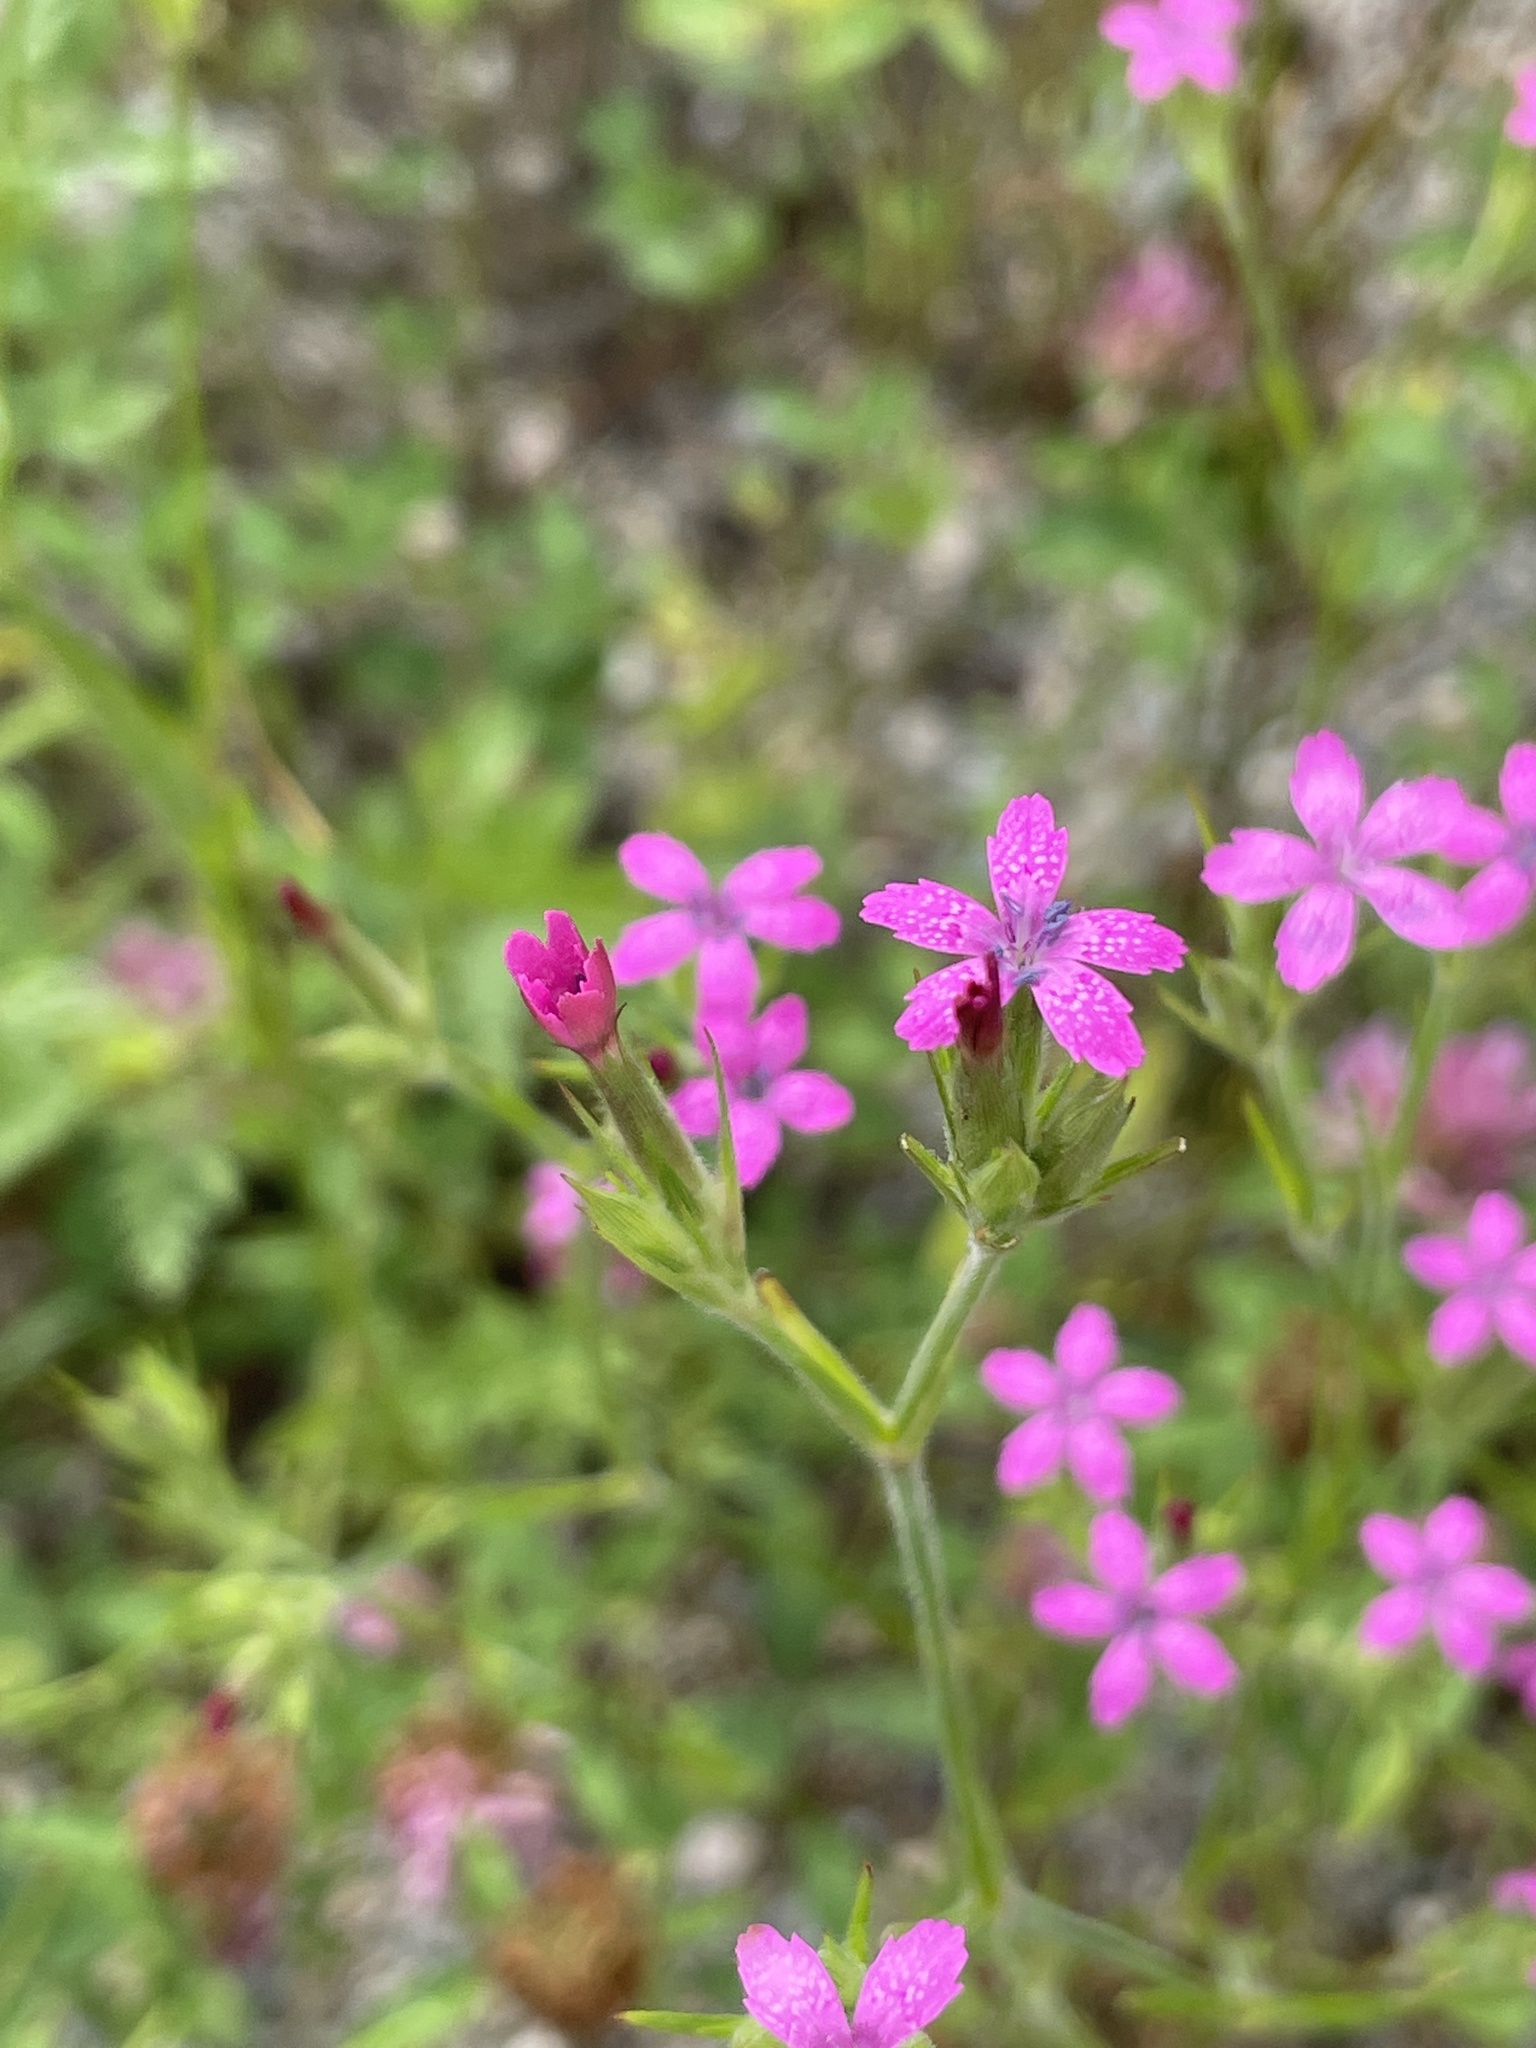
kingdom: Plantae
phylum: Tracheophyta
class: Magnoliopsida
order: Caryophyllales
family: Caryophyllaceae
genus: Dianthus
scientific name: Dianthus armeria
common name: Deptford pink
